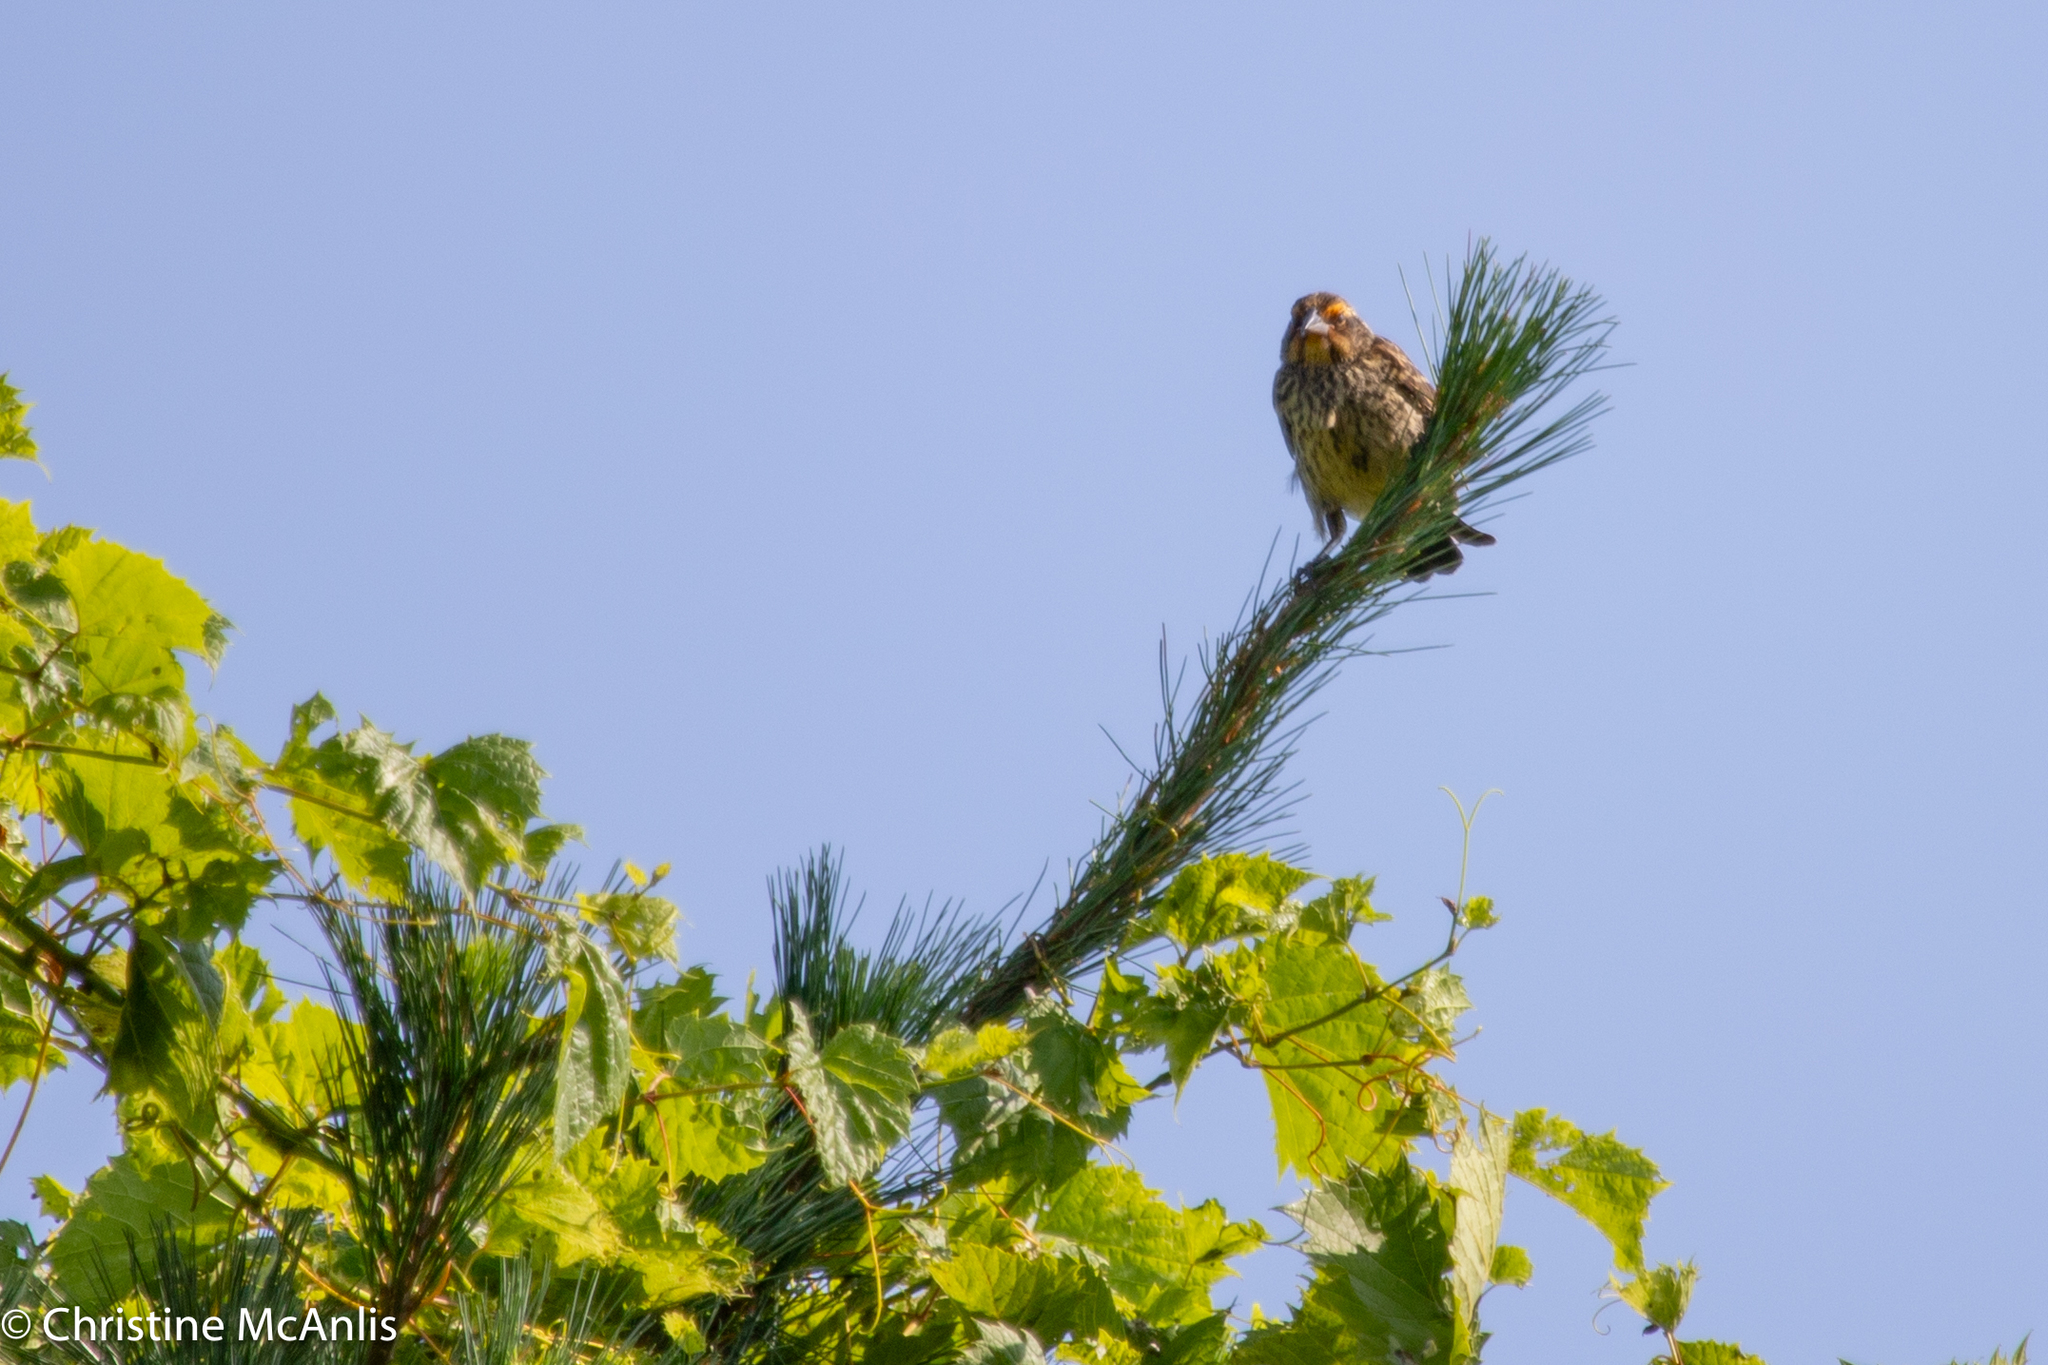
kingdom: Animalia
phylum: Chordata
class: Aves
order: Passeriformes
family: Icteridae
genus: Agelaius
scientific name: Agelaius phoeniceus
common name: Red-winged blackbird
